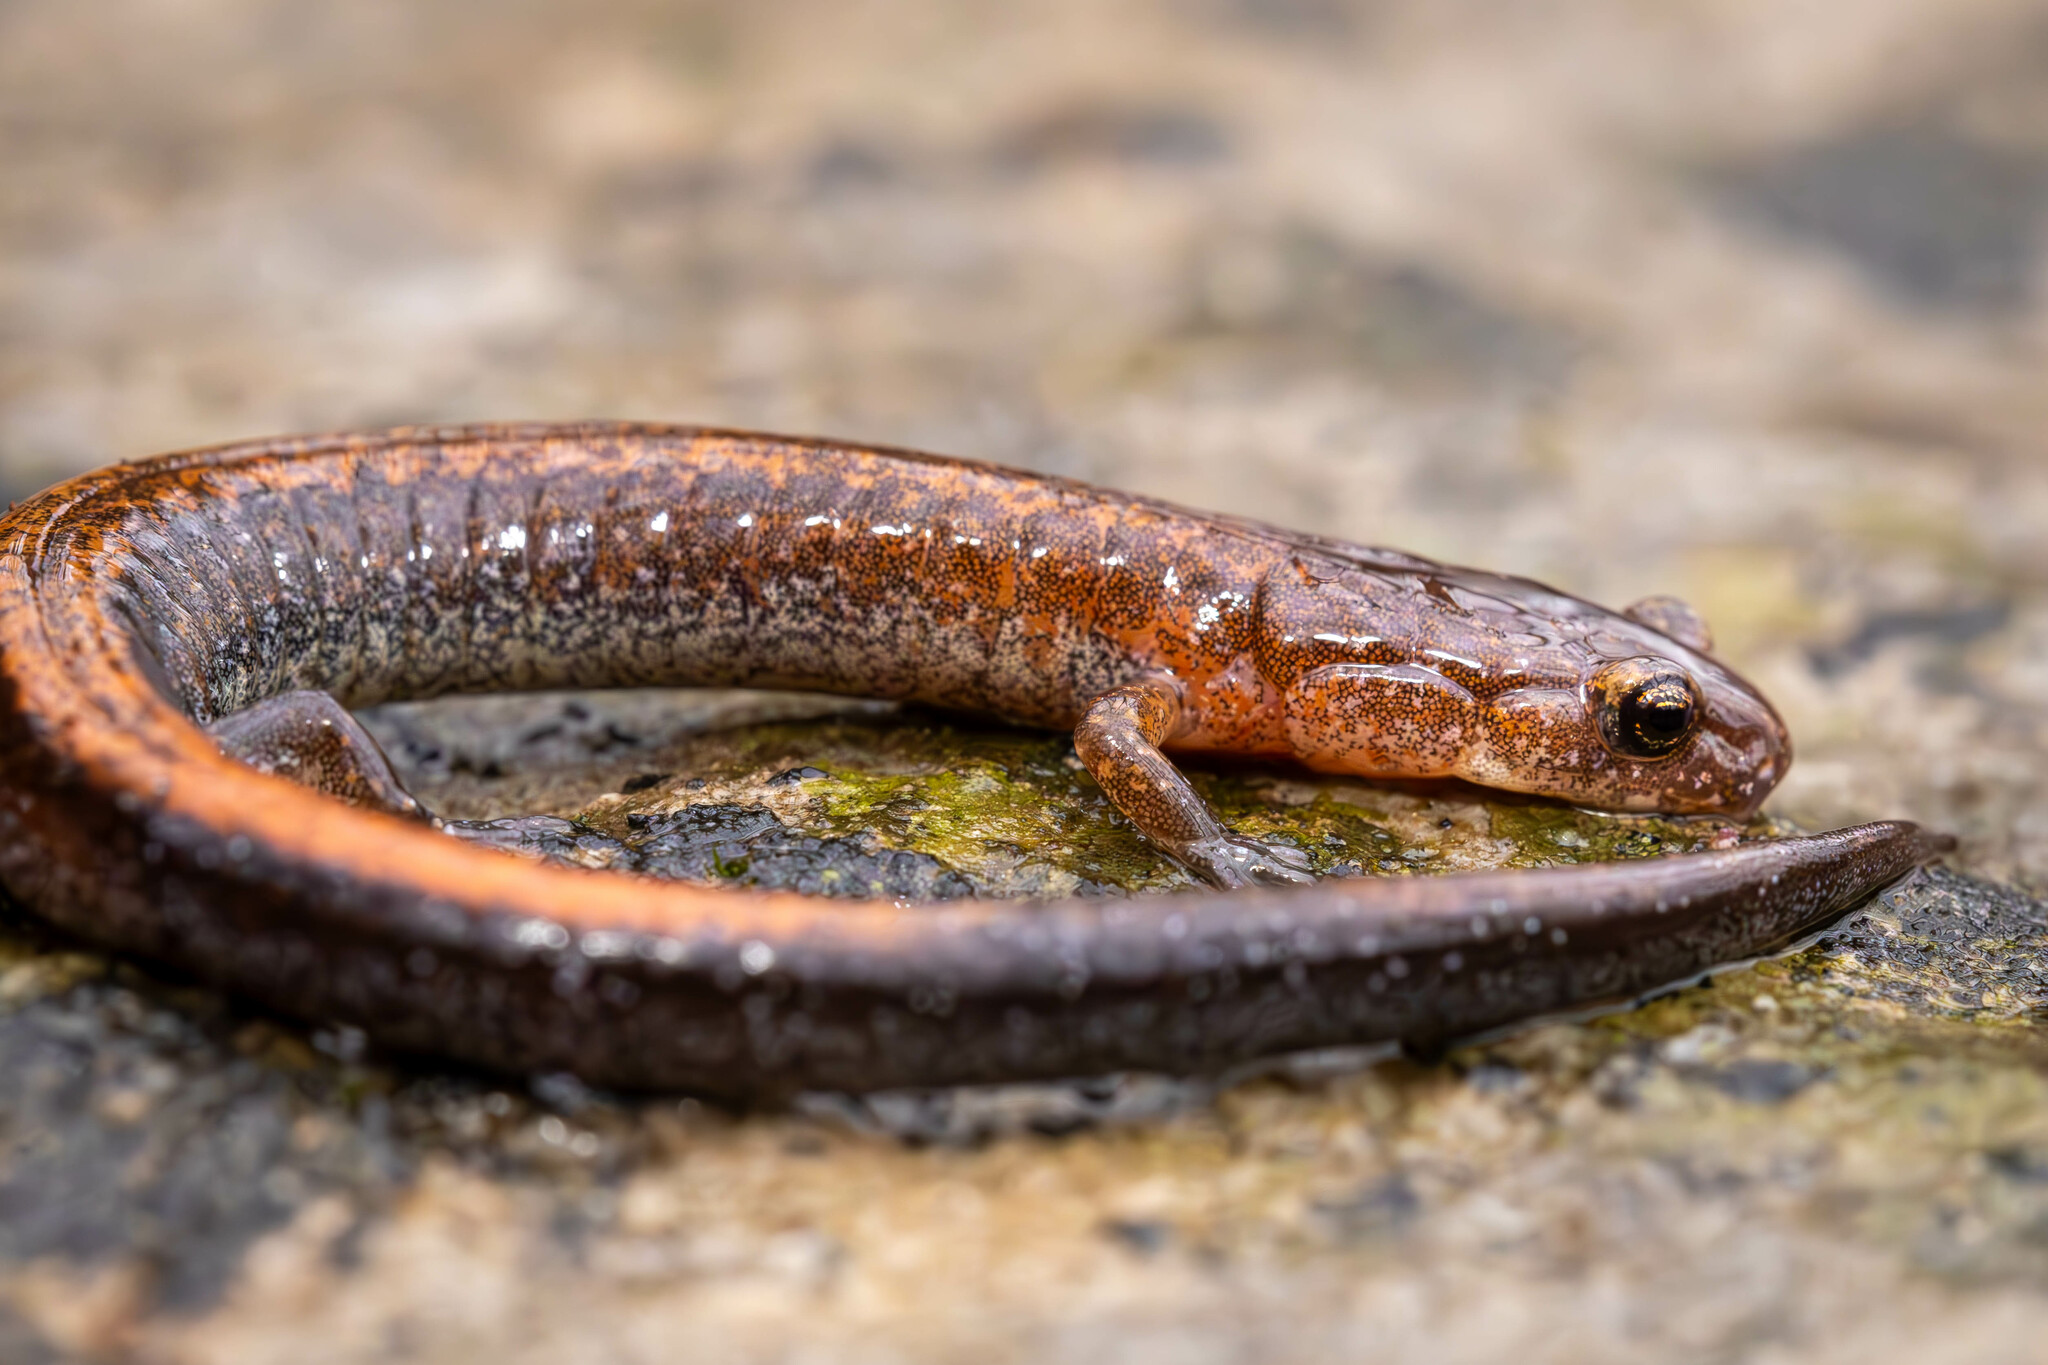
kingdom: Animalia
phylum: Chordata
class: Amphibia
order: Caudata
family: Plethodontidae
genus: Plethodon
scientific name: Plethodon ventralis
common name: Southern zigzag salamander
